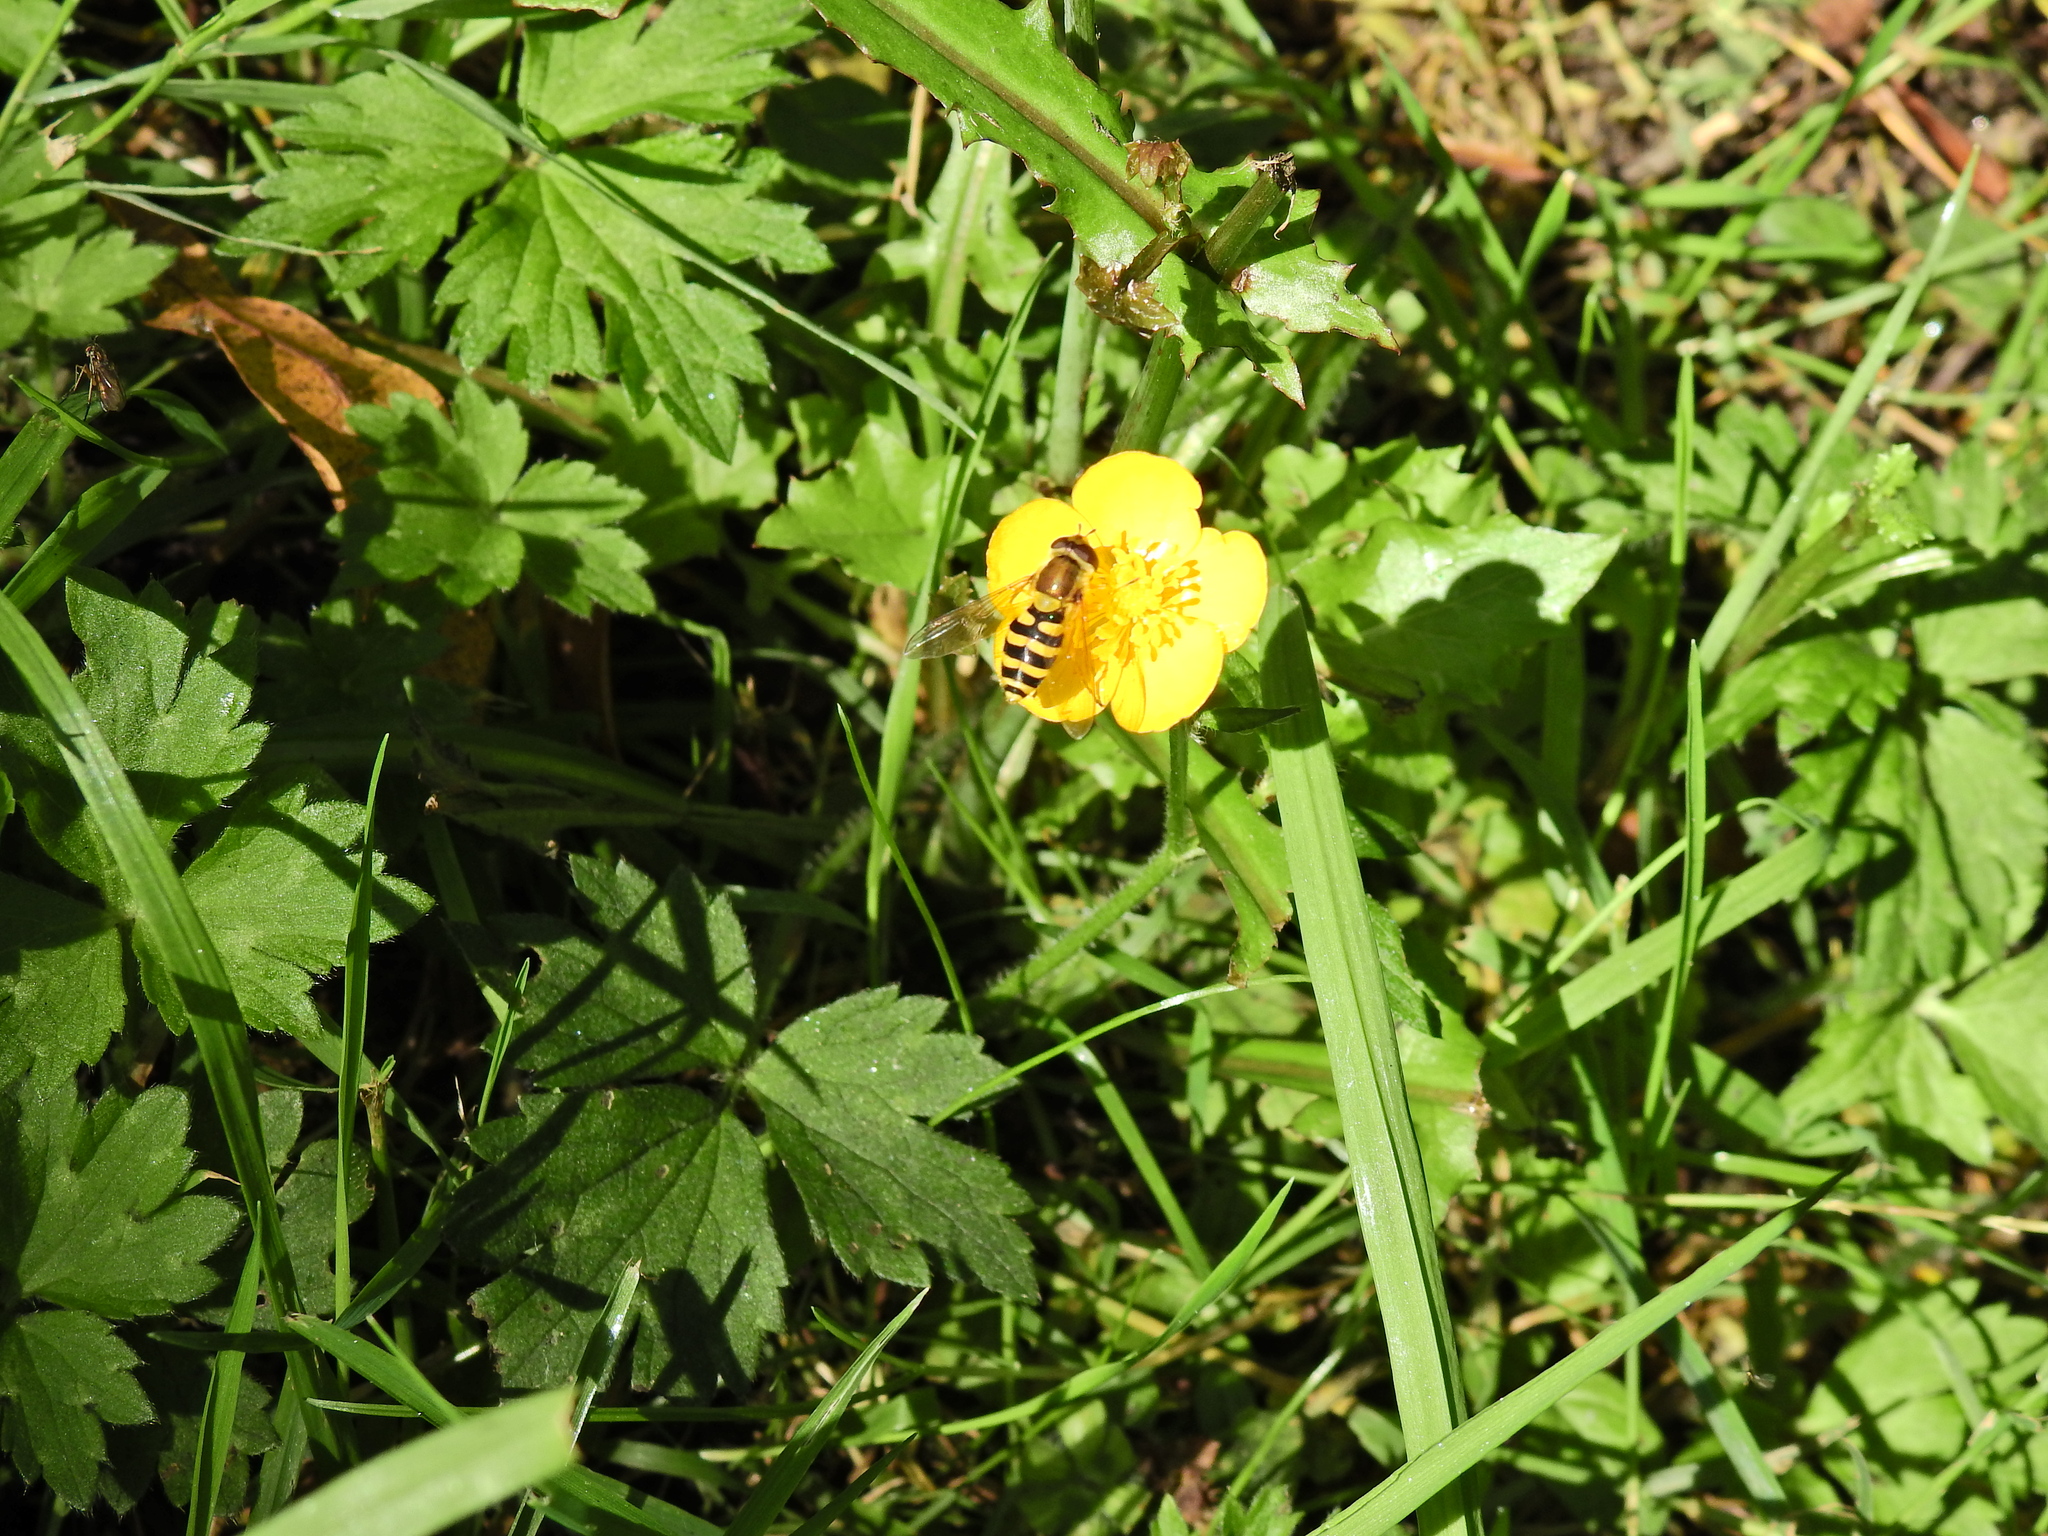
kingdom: Animalia
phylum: Arthropoda
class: Insecta
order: Diptera
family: Syrphidae
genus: Syrphus
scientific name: Syrphus
